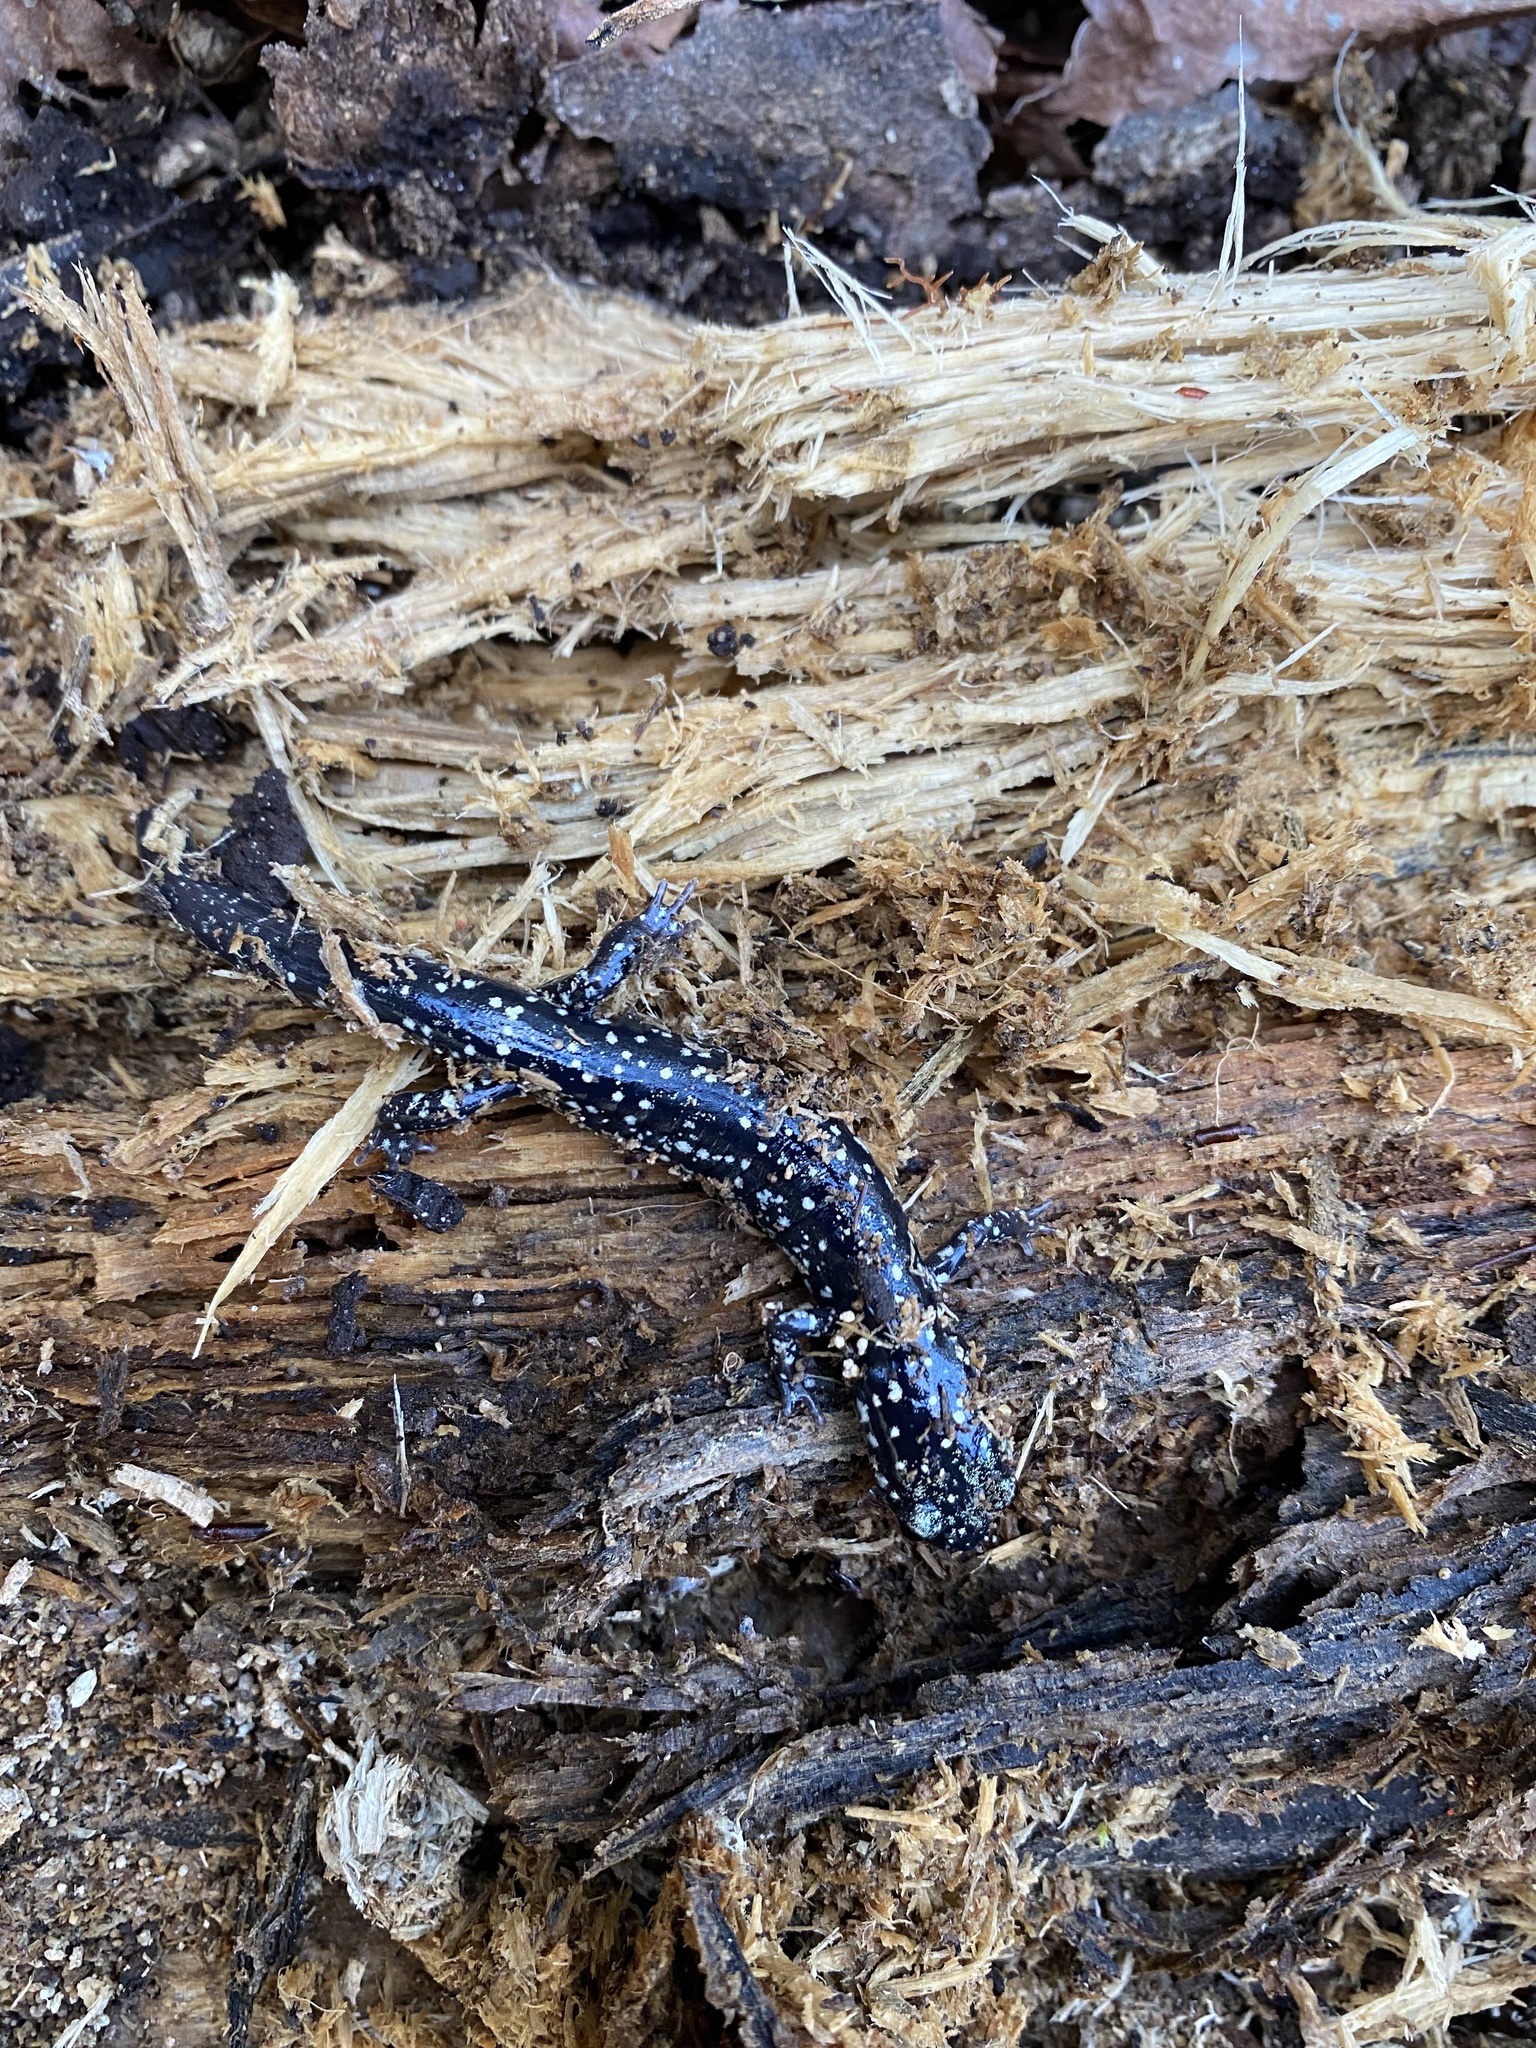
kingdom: Animalia
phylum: Chordata
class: Amphibia
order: Caudata
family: Plethodontidae
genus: Plethodon
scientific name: Plethodon glutinosus
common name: Northern slimy salamander
